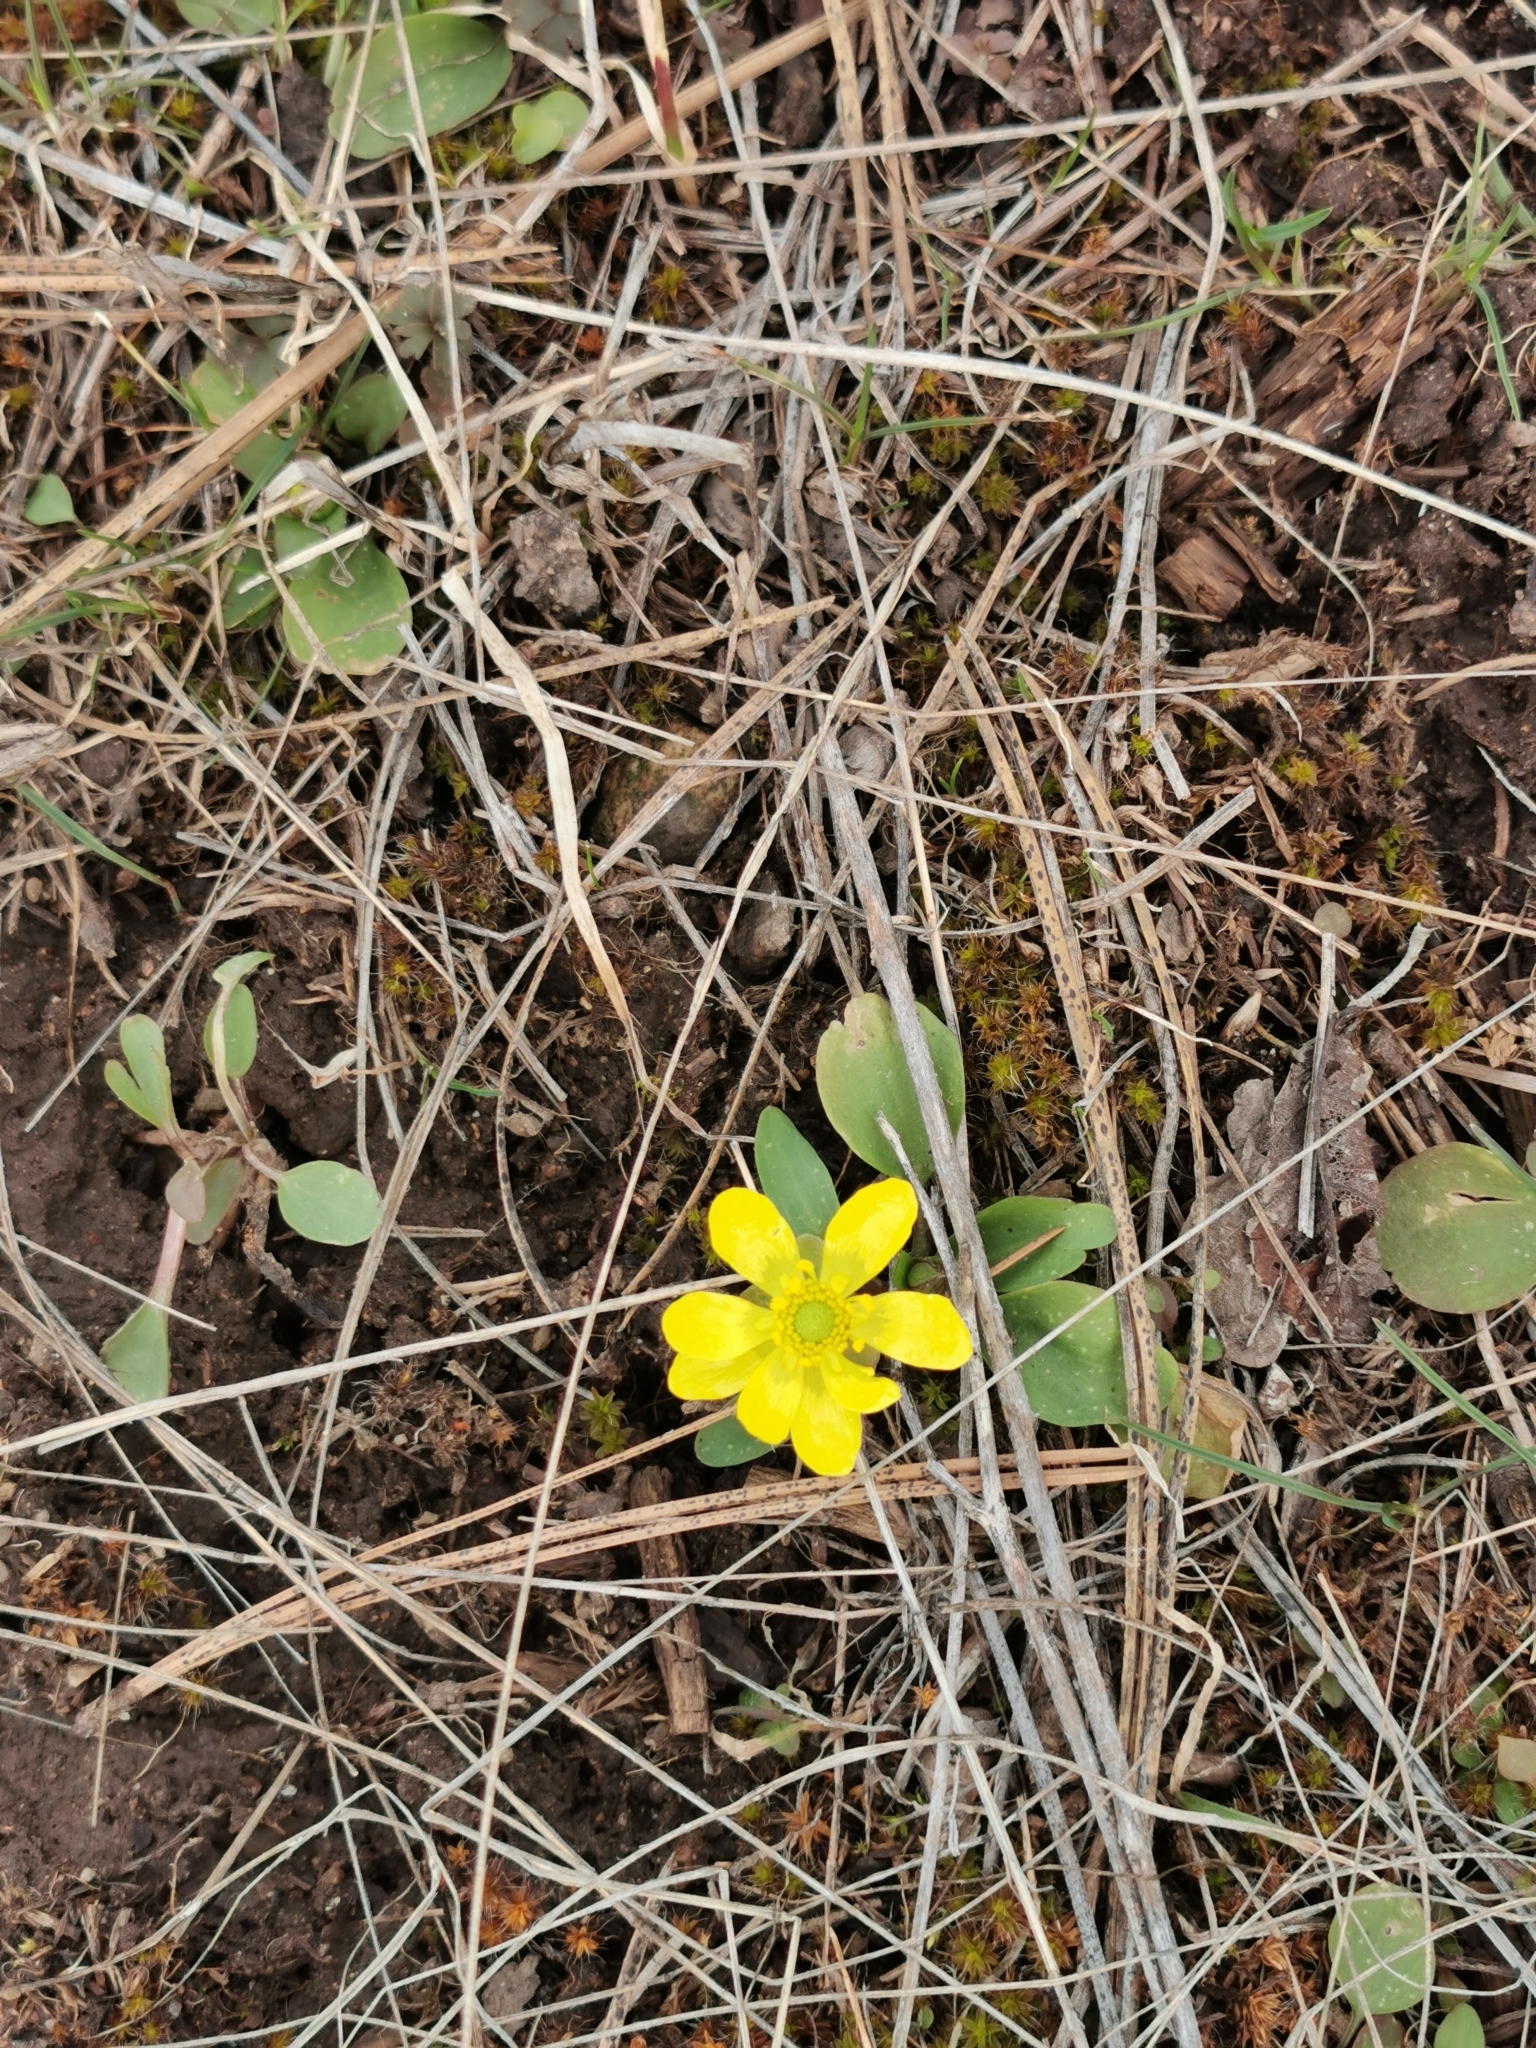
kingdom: Plantae
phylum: Tracheophyta
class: Magnoliopsida
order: Ranunculales
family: Ranunculaceae
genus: Ranunculus
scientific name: Ranunculus glaberrimus
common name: Sagebrush buttercup
